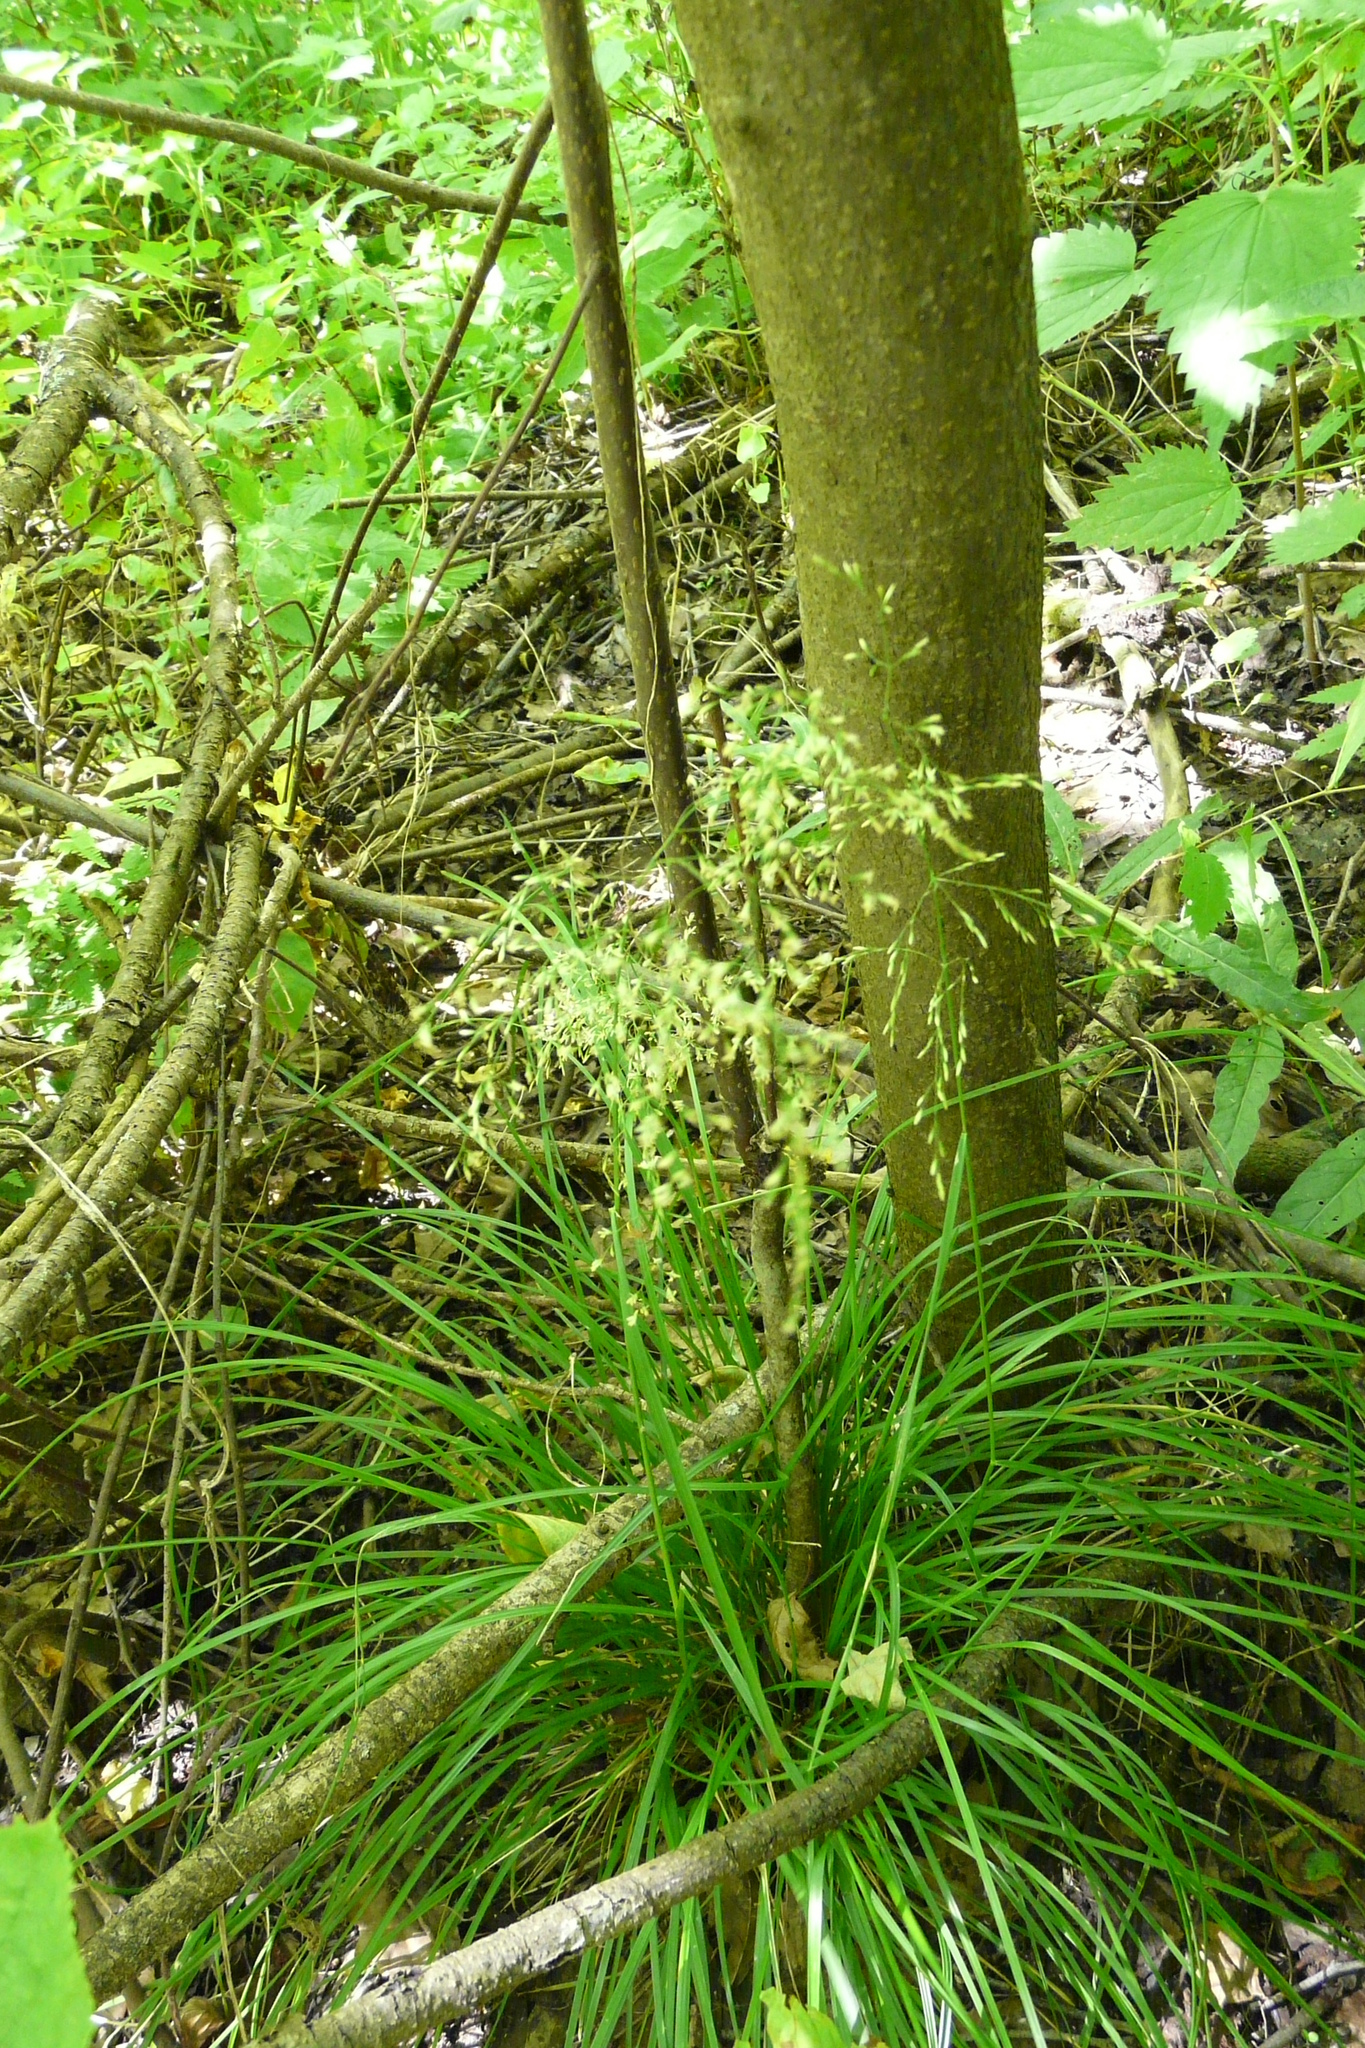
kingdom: Plantae
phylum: Tracheophyta
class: Liliopsida
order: Poales
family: Poaceae
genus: Deschampsia
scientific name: Deschampsia cespitosa
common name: Tufted hair-grass
